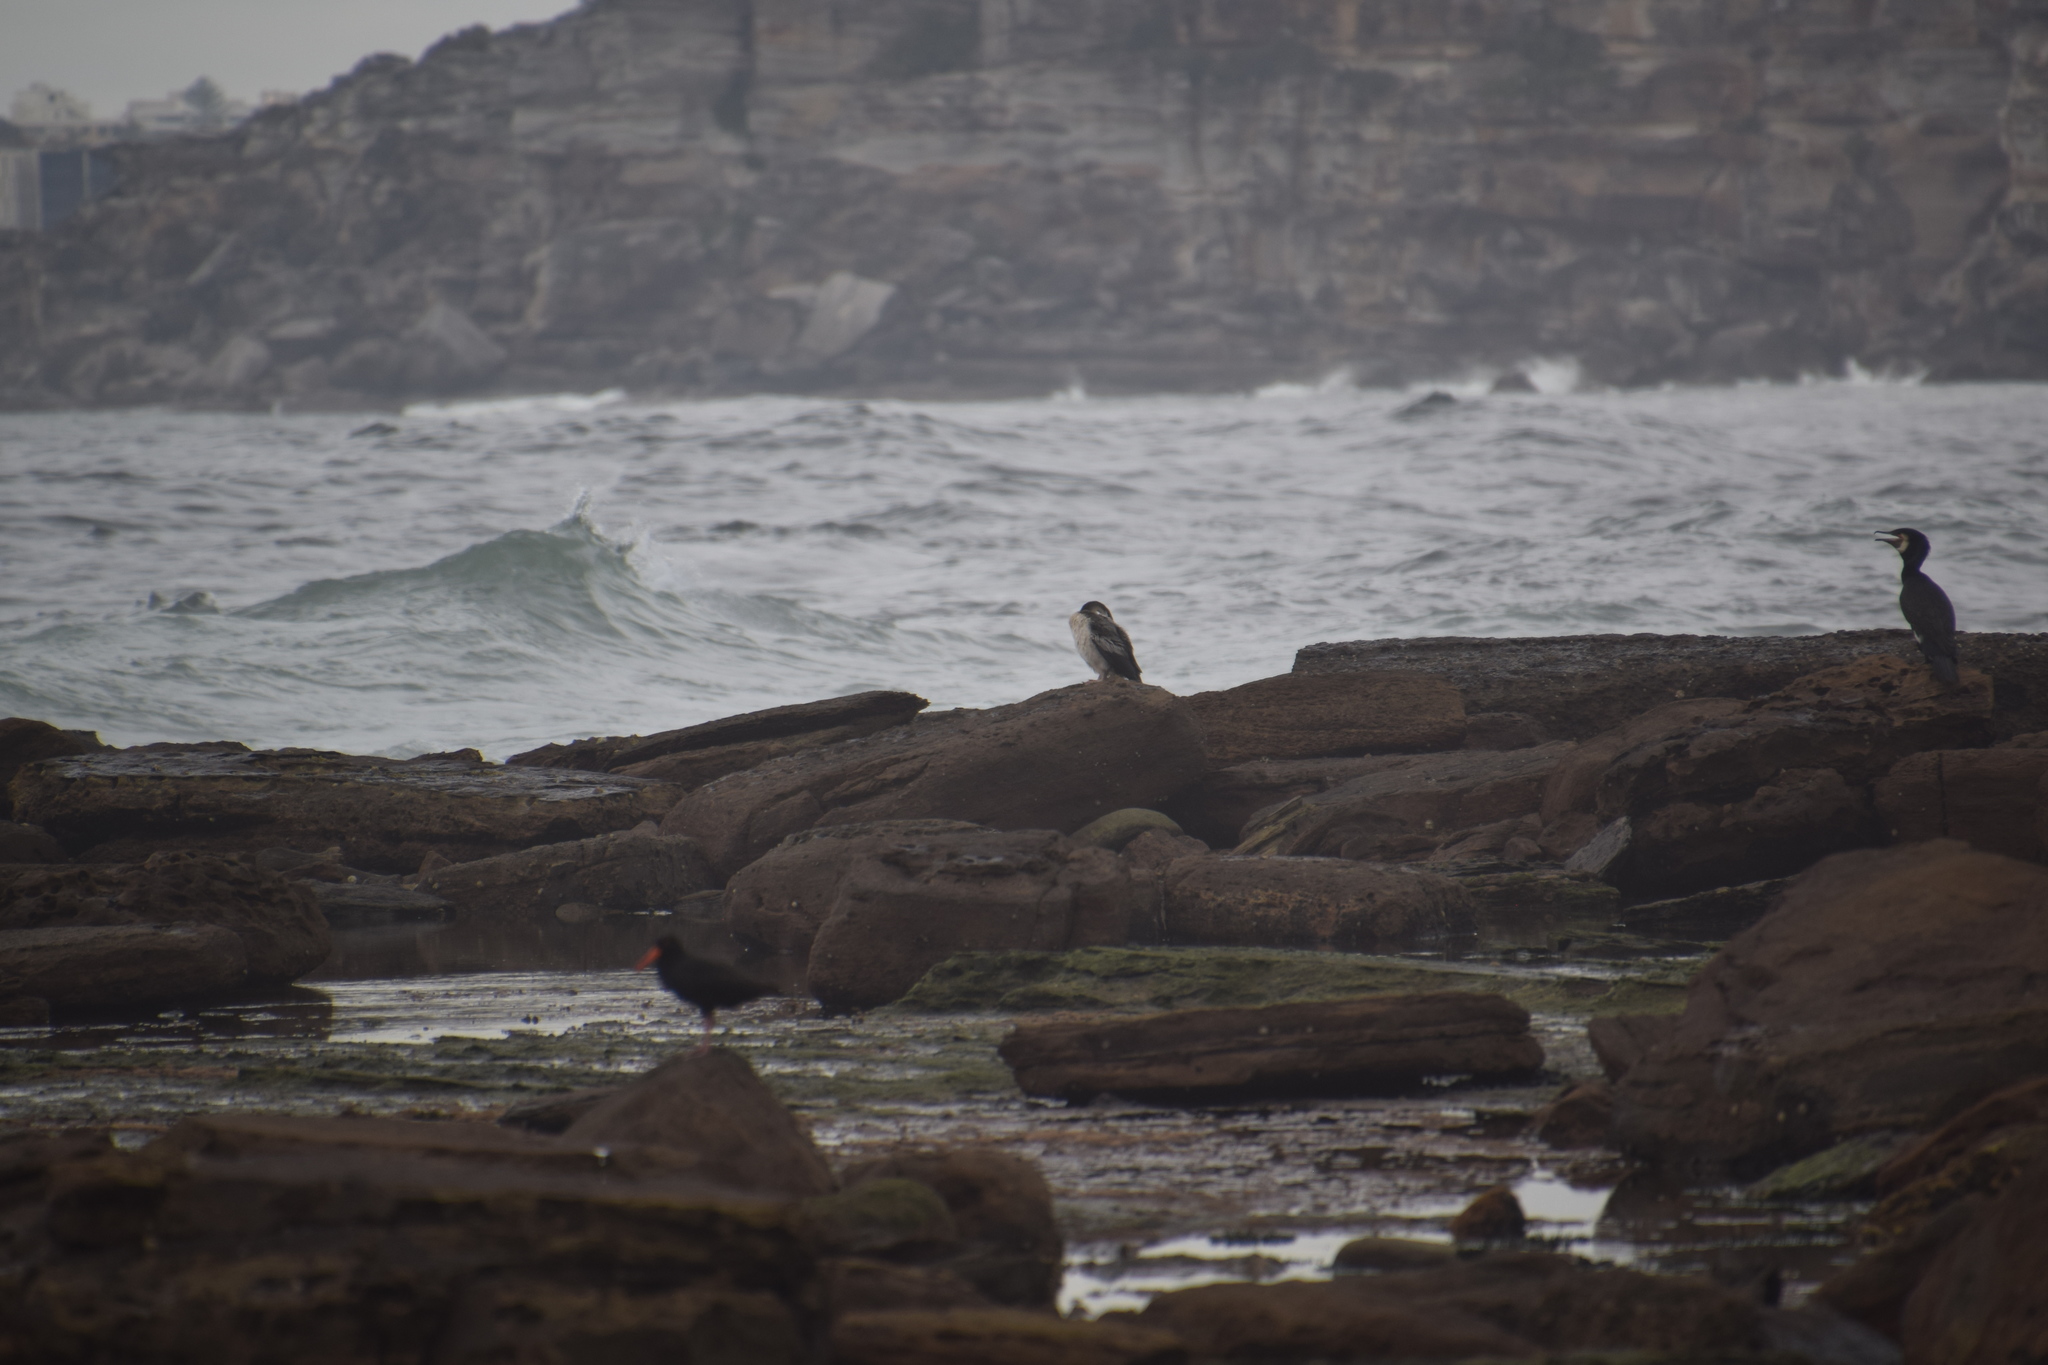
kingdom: Animalia
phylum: Chordata
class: Aves
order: Suliformes
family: Anhingidae
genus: Anhinga
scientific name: Anhinga novaehollandiae
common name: Australasian darter
